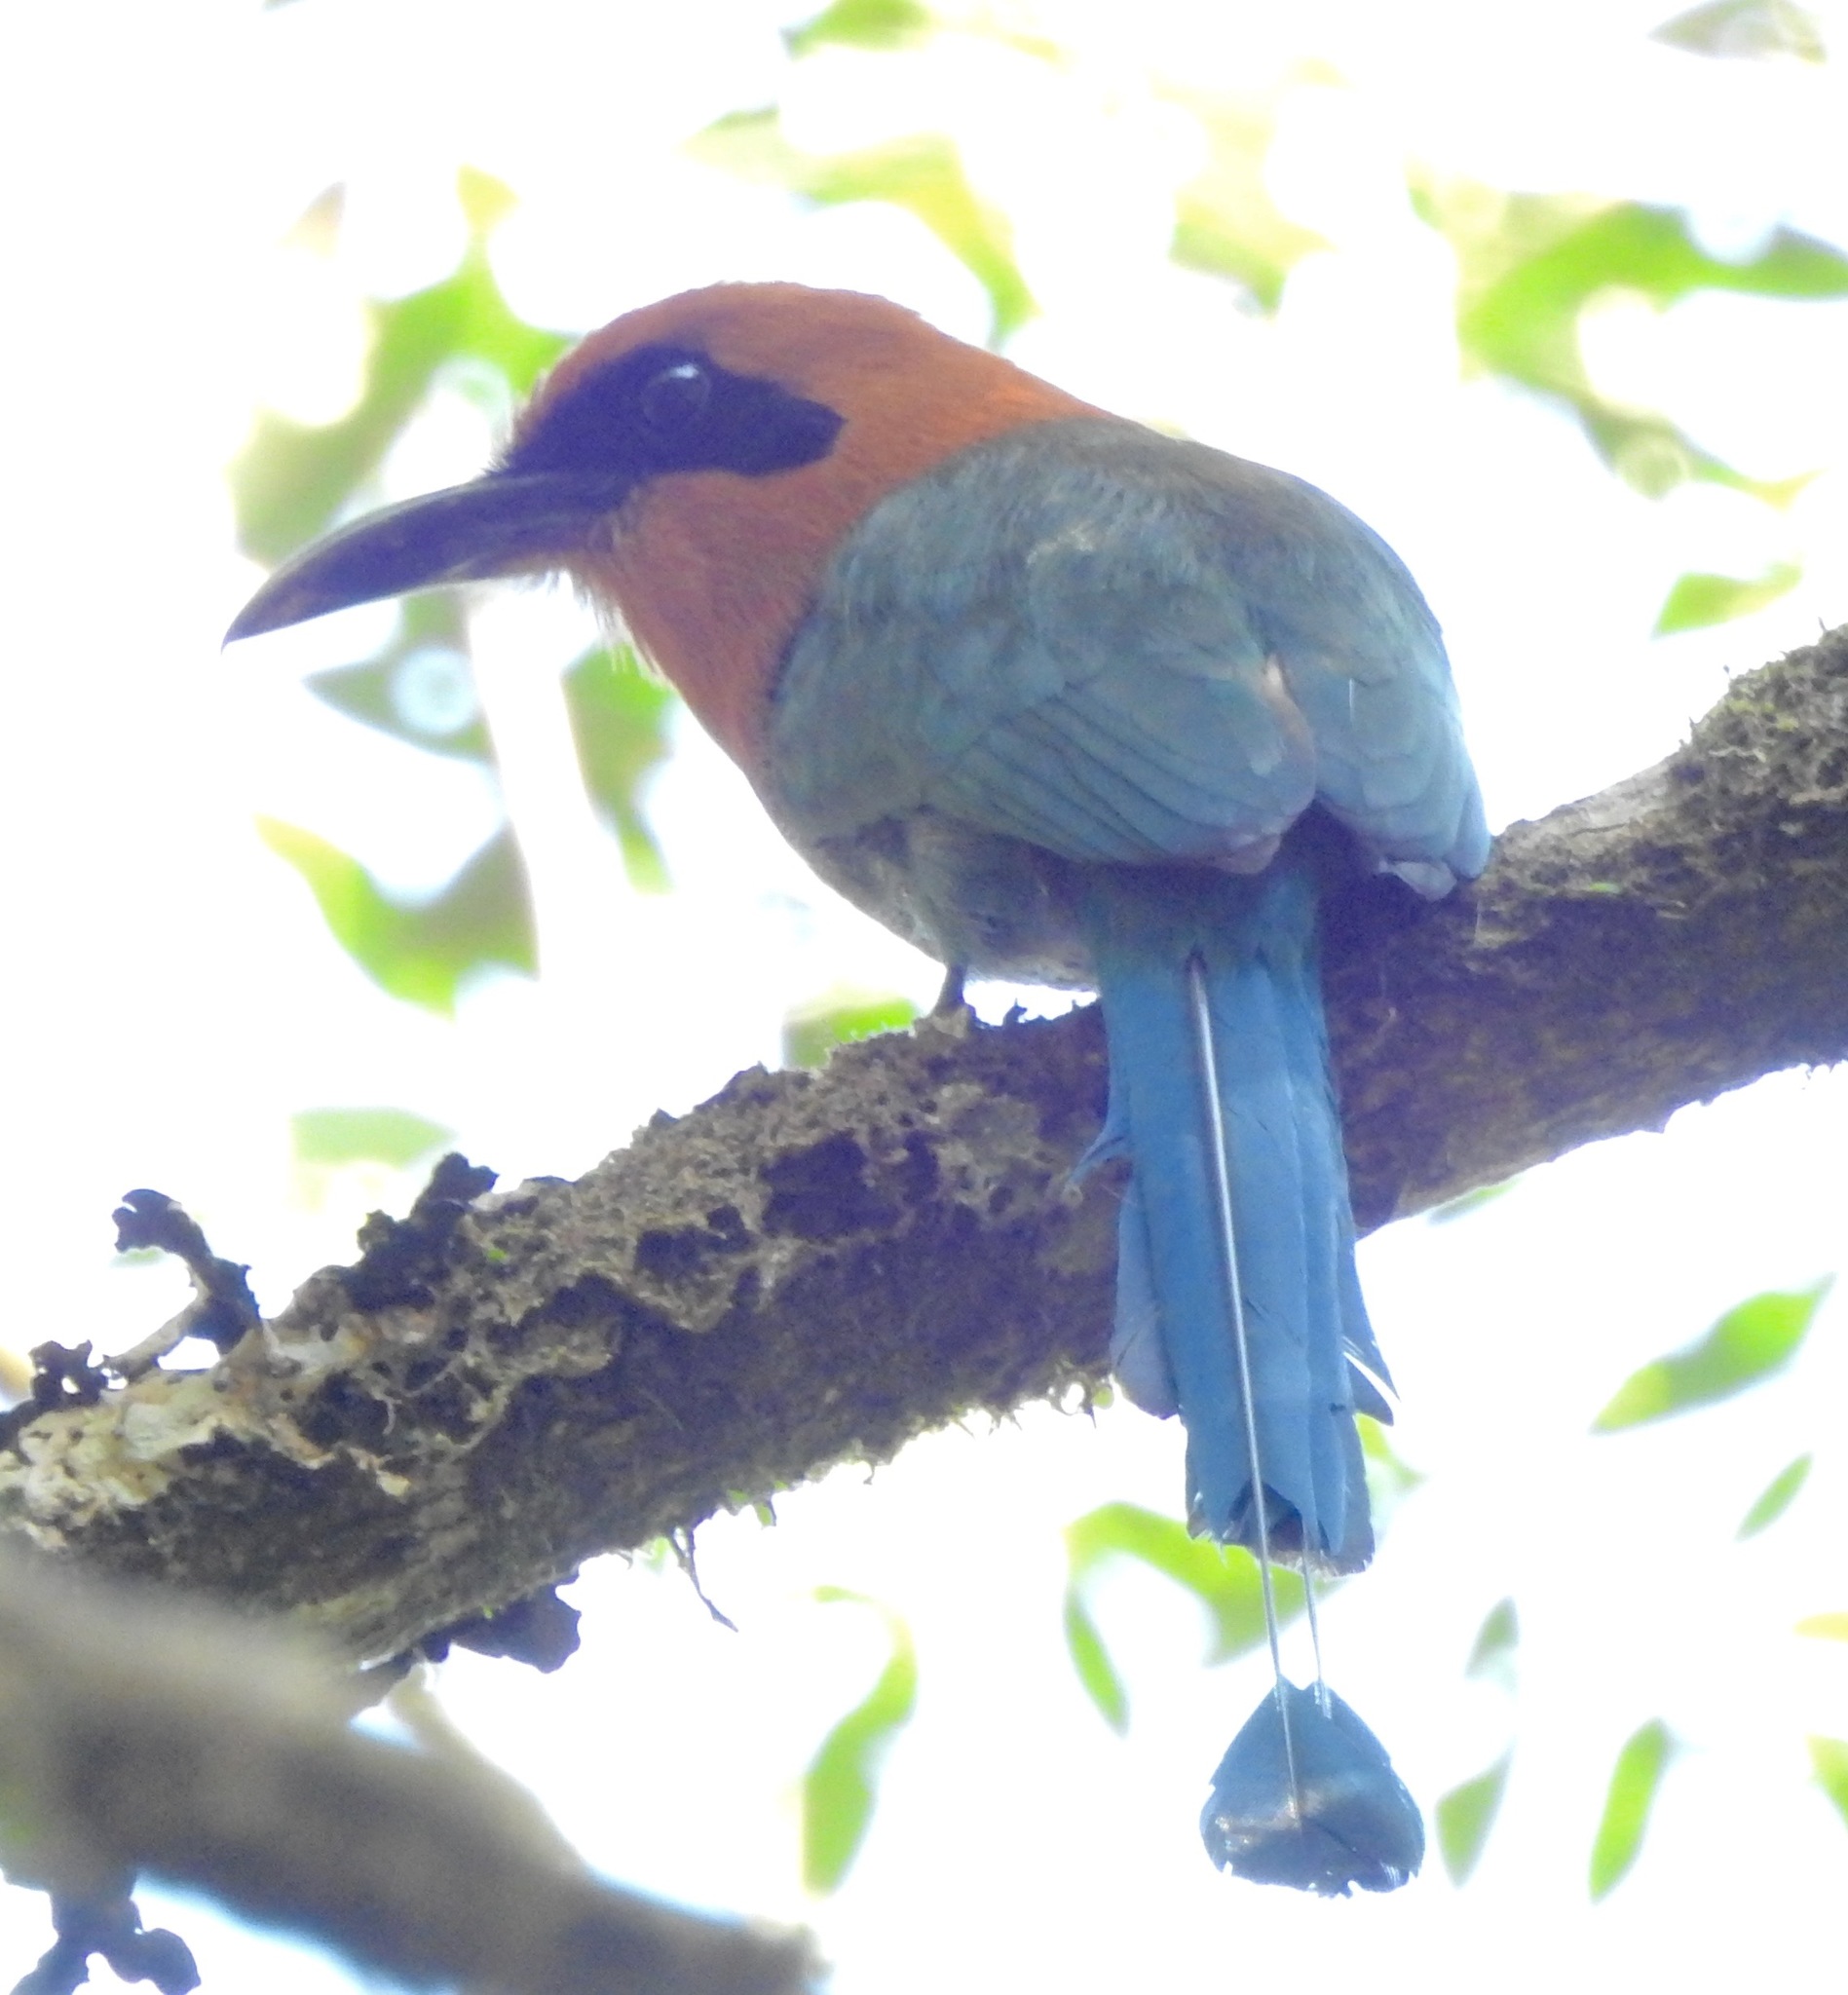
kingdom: Animalia
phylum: Chordata
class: Aves
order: Coraciiformes
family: Momotidae
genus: Electron
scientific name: Electron platyrhynchum
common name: Broad-billed motmot
